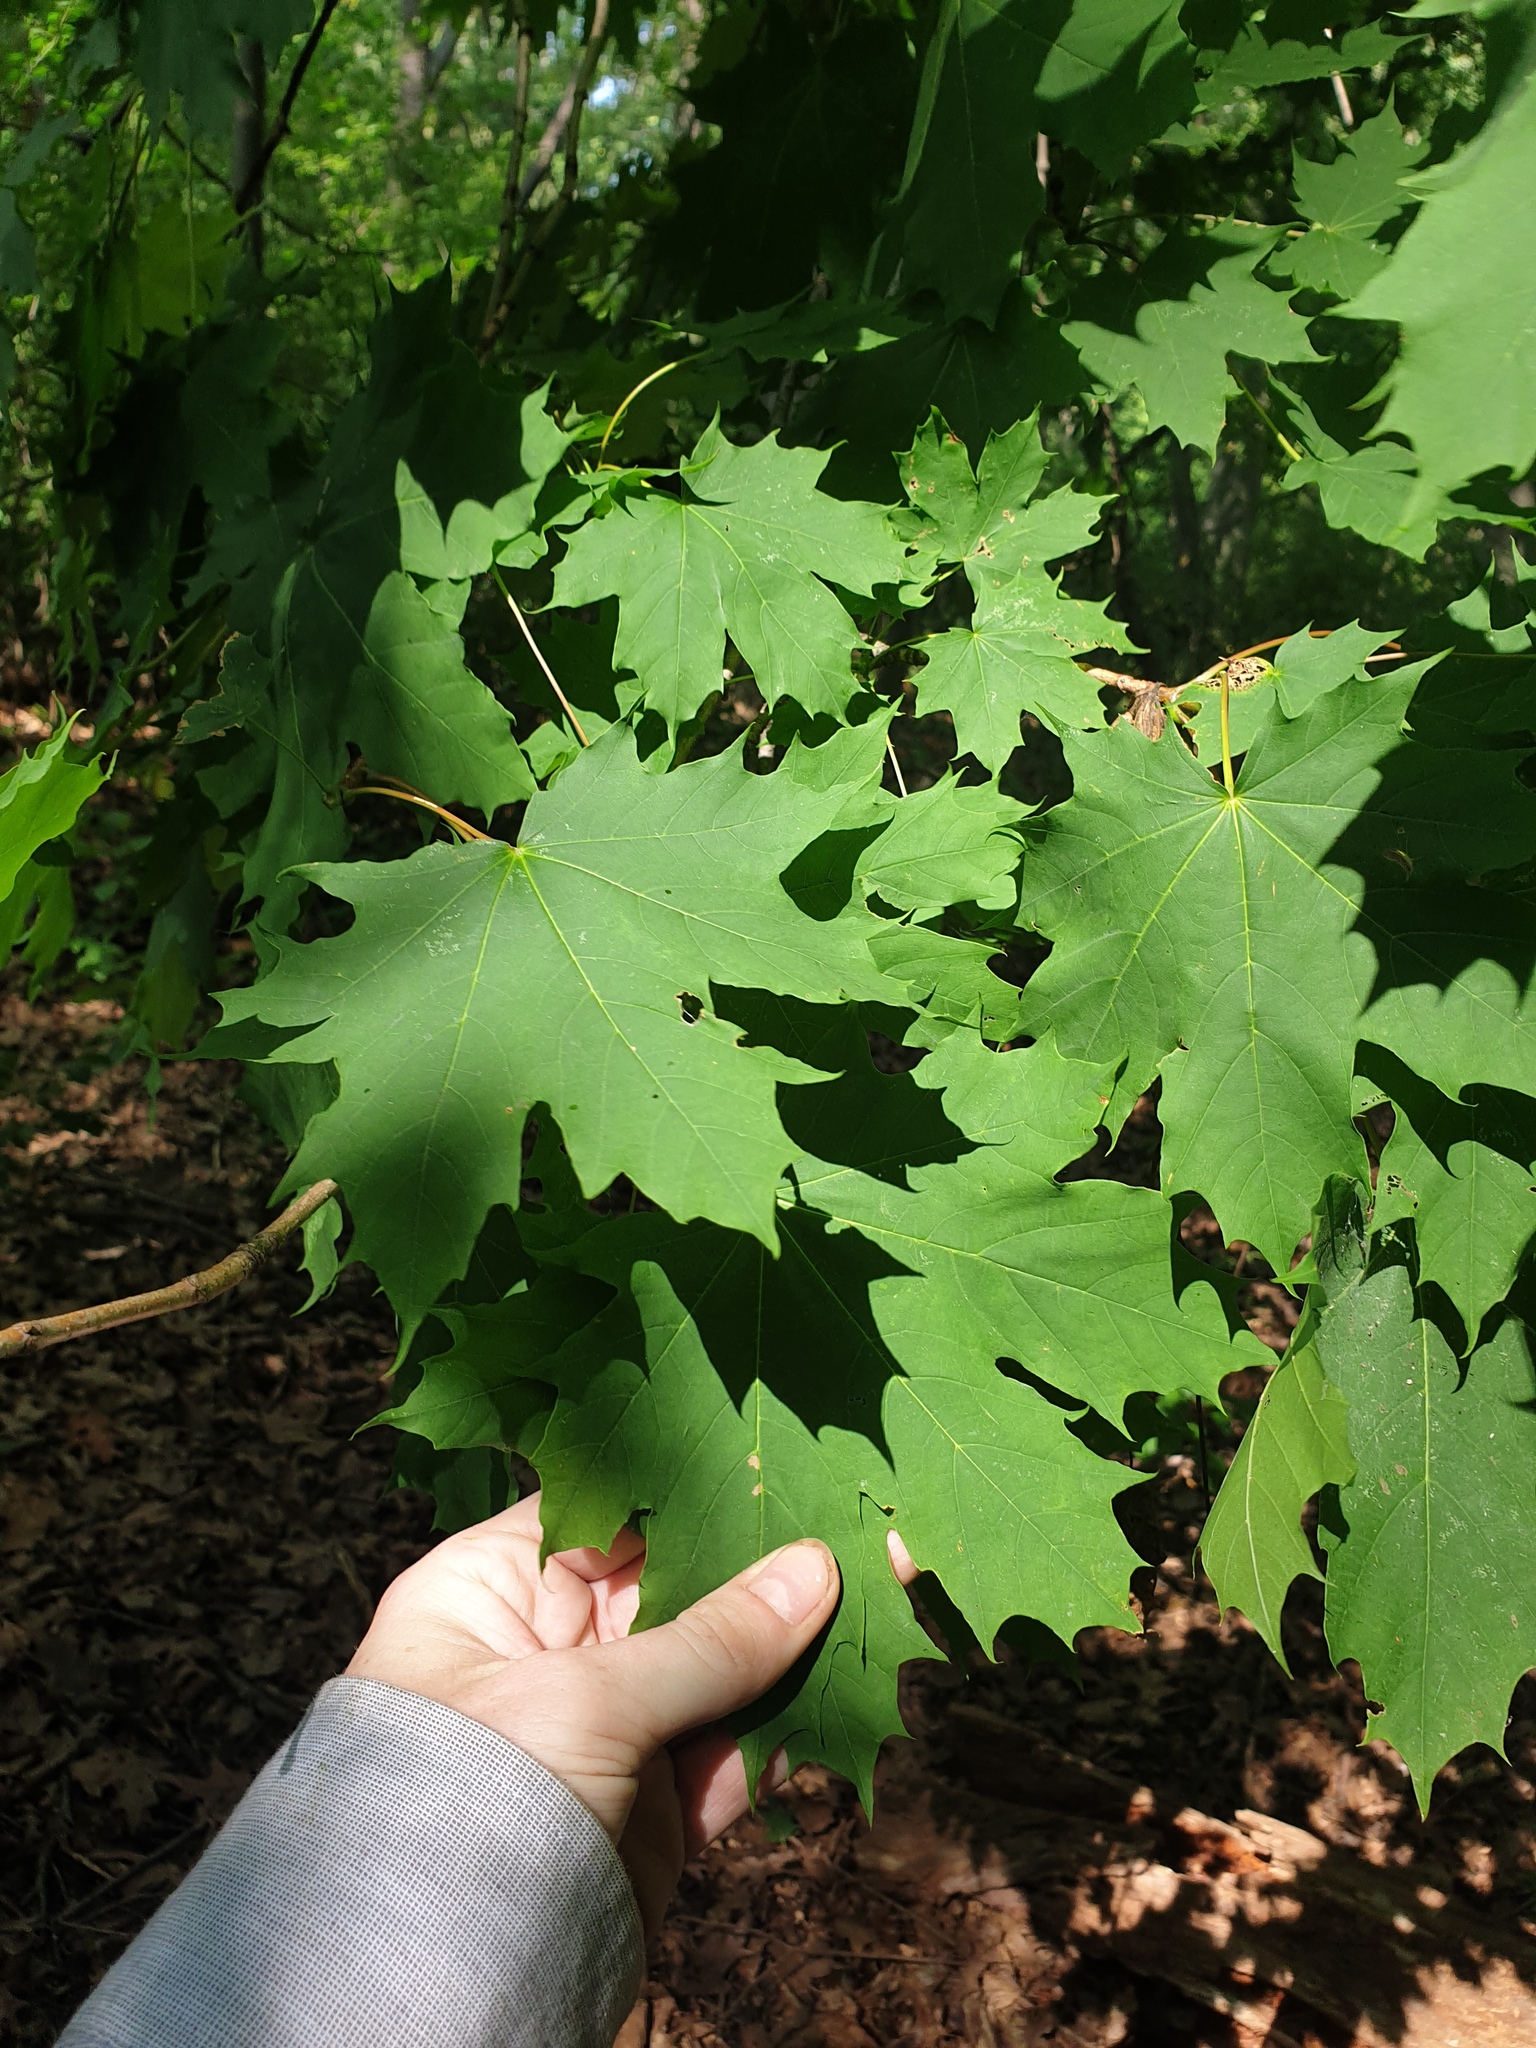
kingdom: Plantae
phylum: Tracheophyta
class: Magnoliopsida
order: Sapindales
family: Sapindaceae
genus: Acer
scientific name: Acer platanoides
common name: Norway maple
